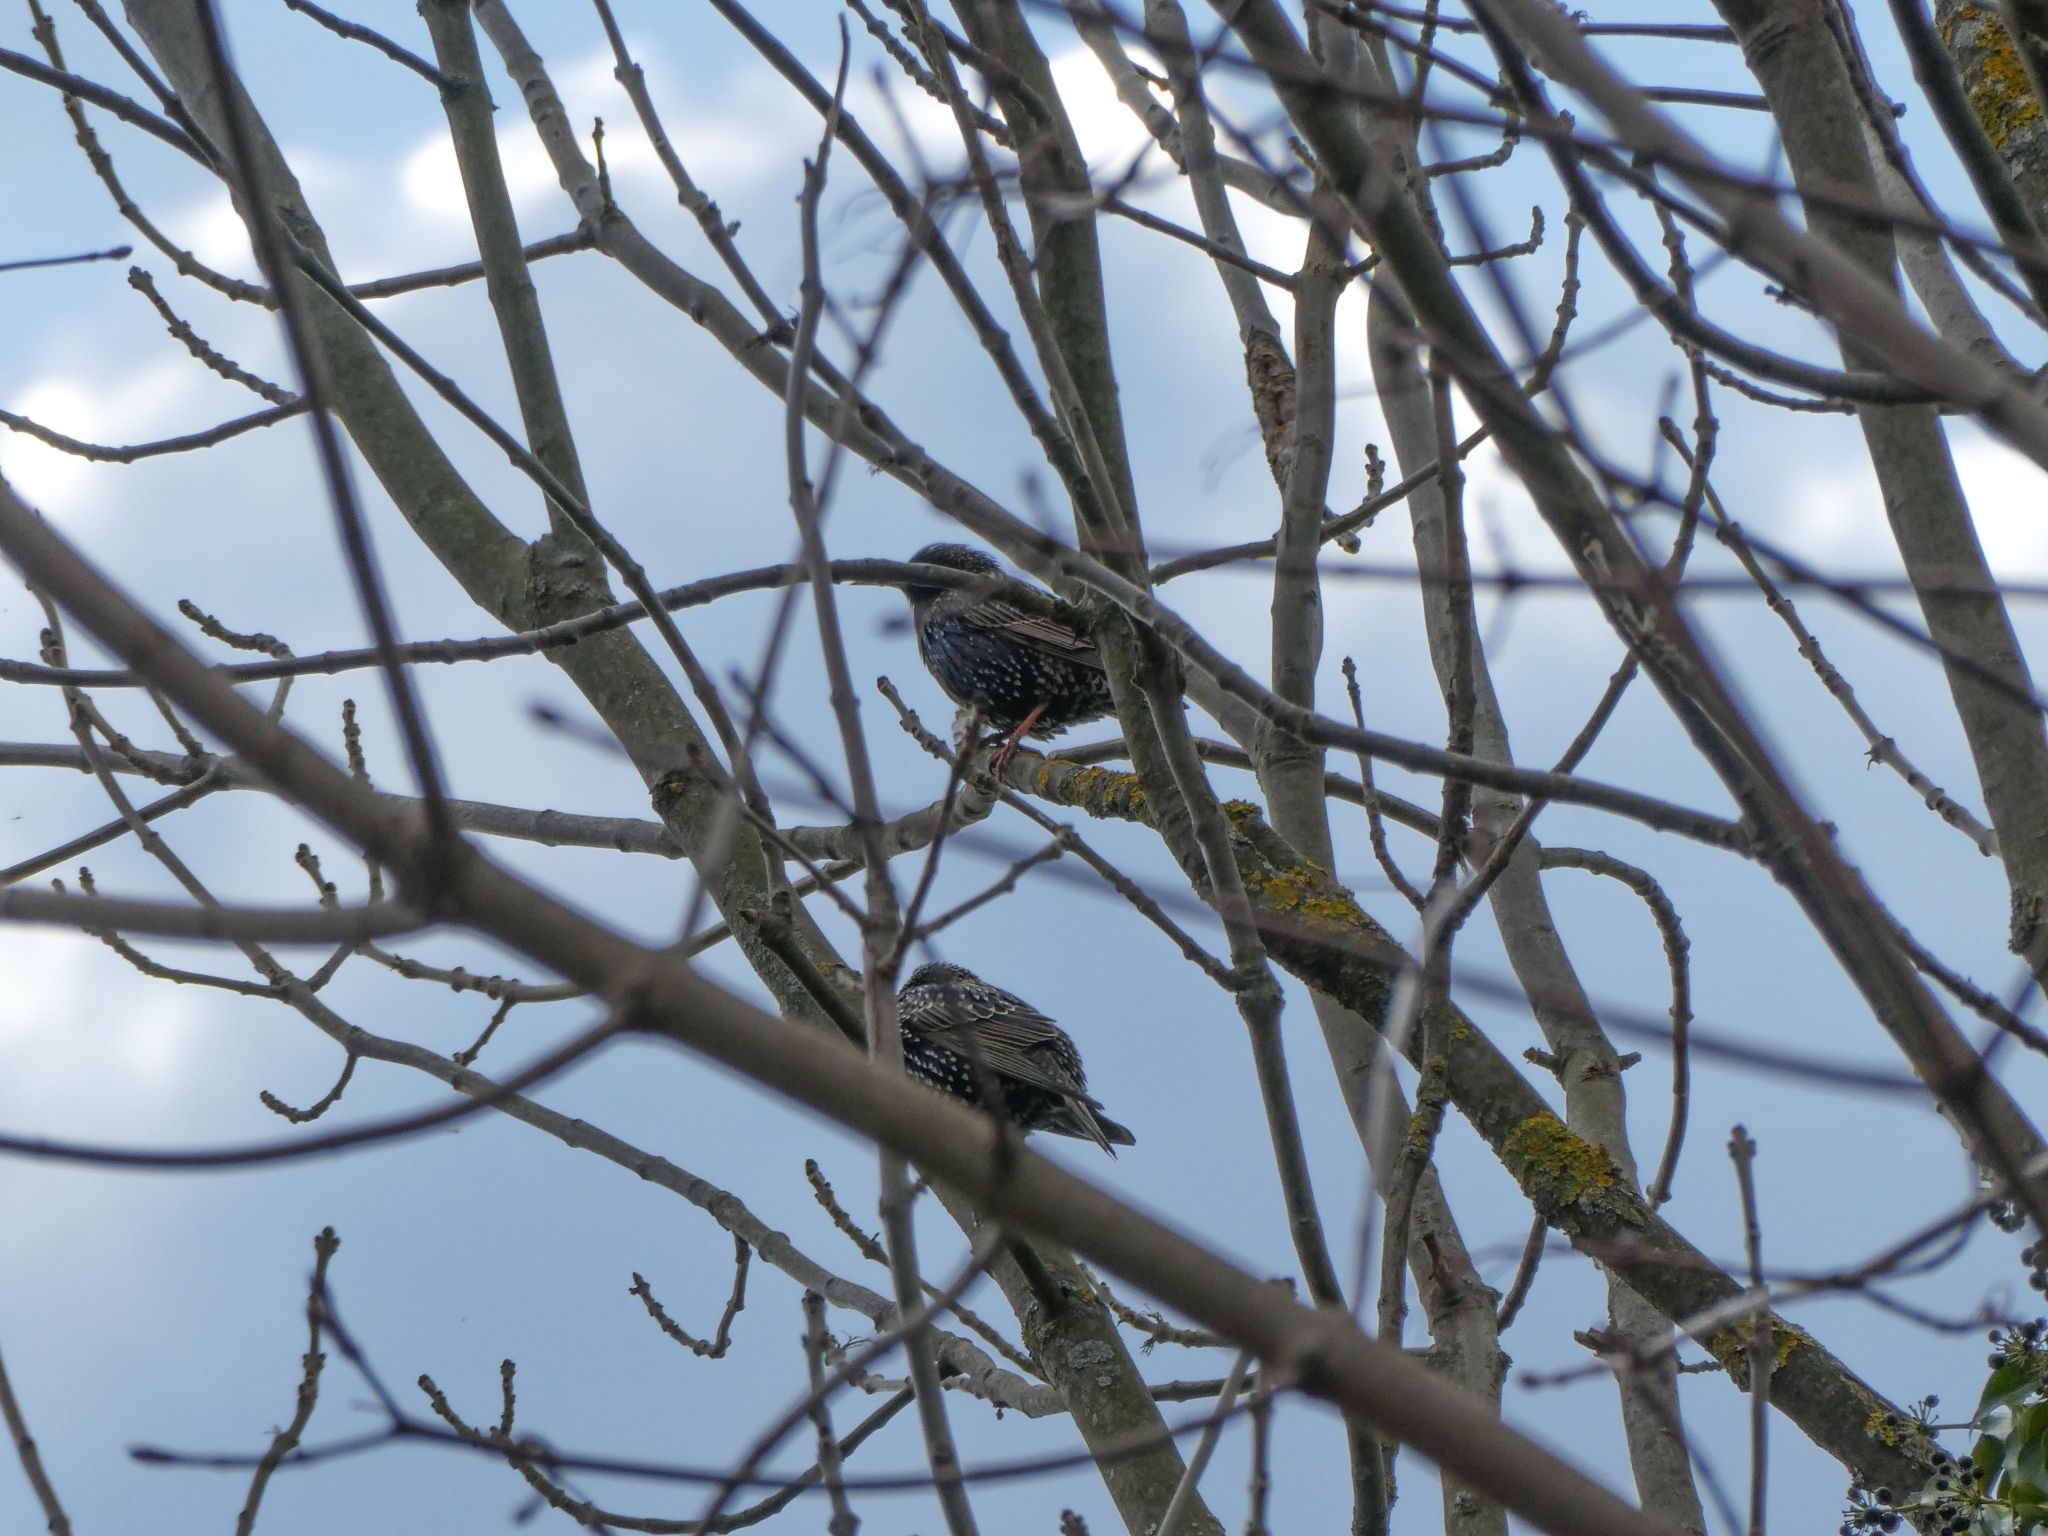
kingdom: Animalia
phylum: Chordata
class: Aves
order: Passeriformes
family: Sturnidae
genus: Sturnus
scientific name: Sturnus vulgaris
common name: Common starling
